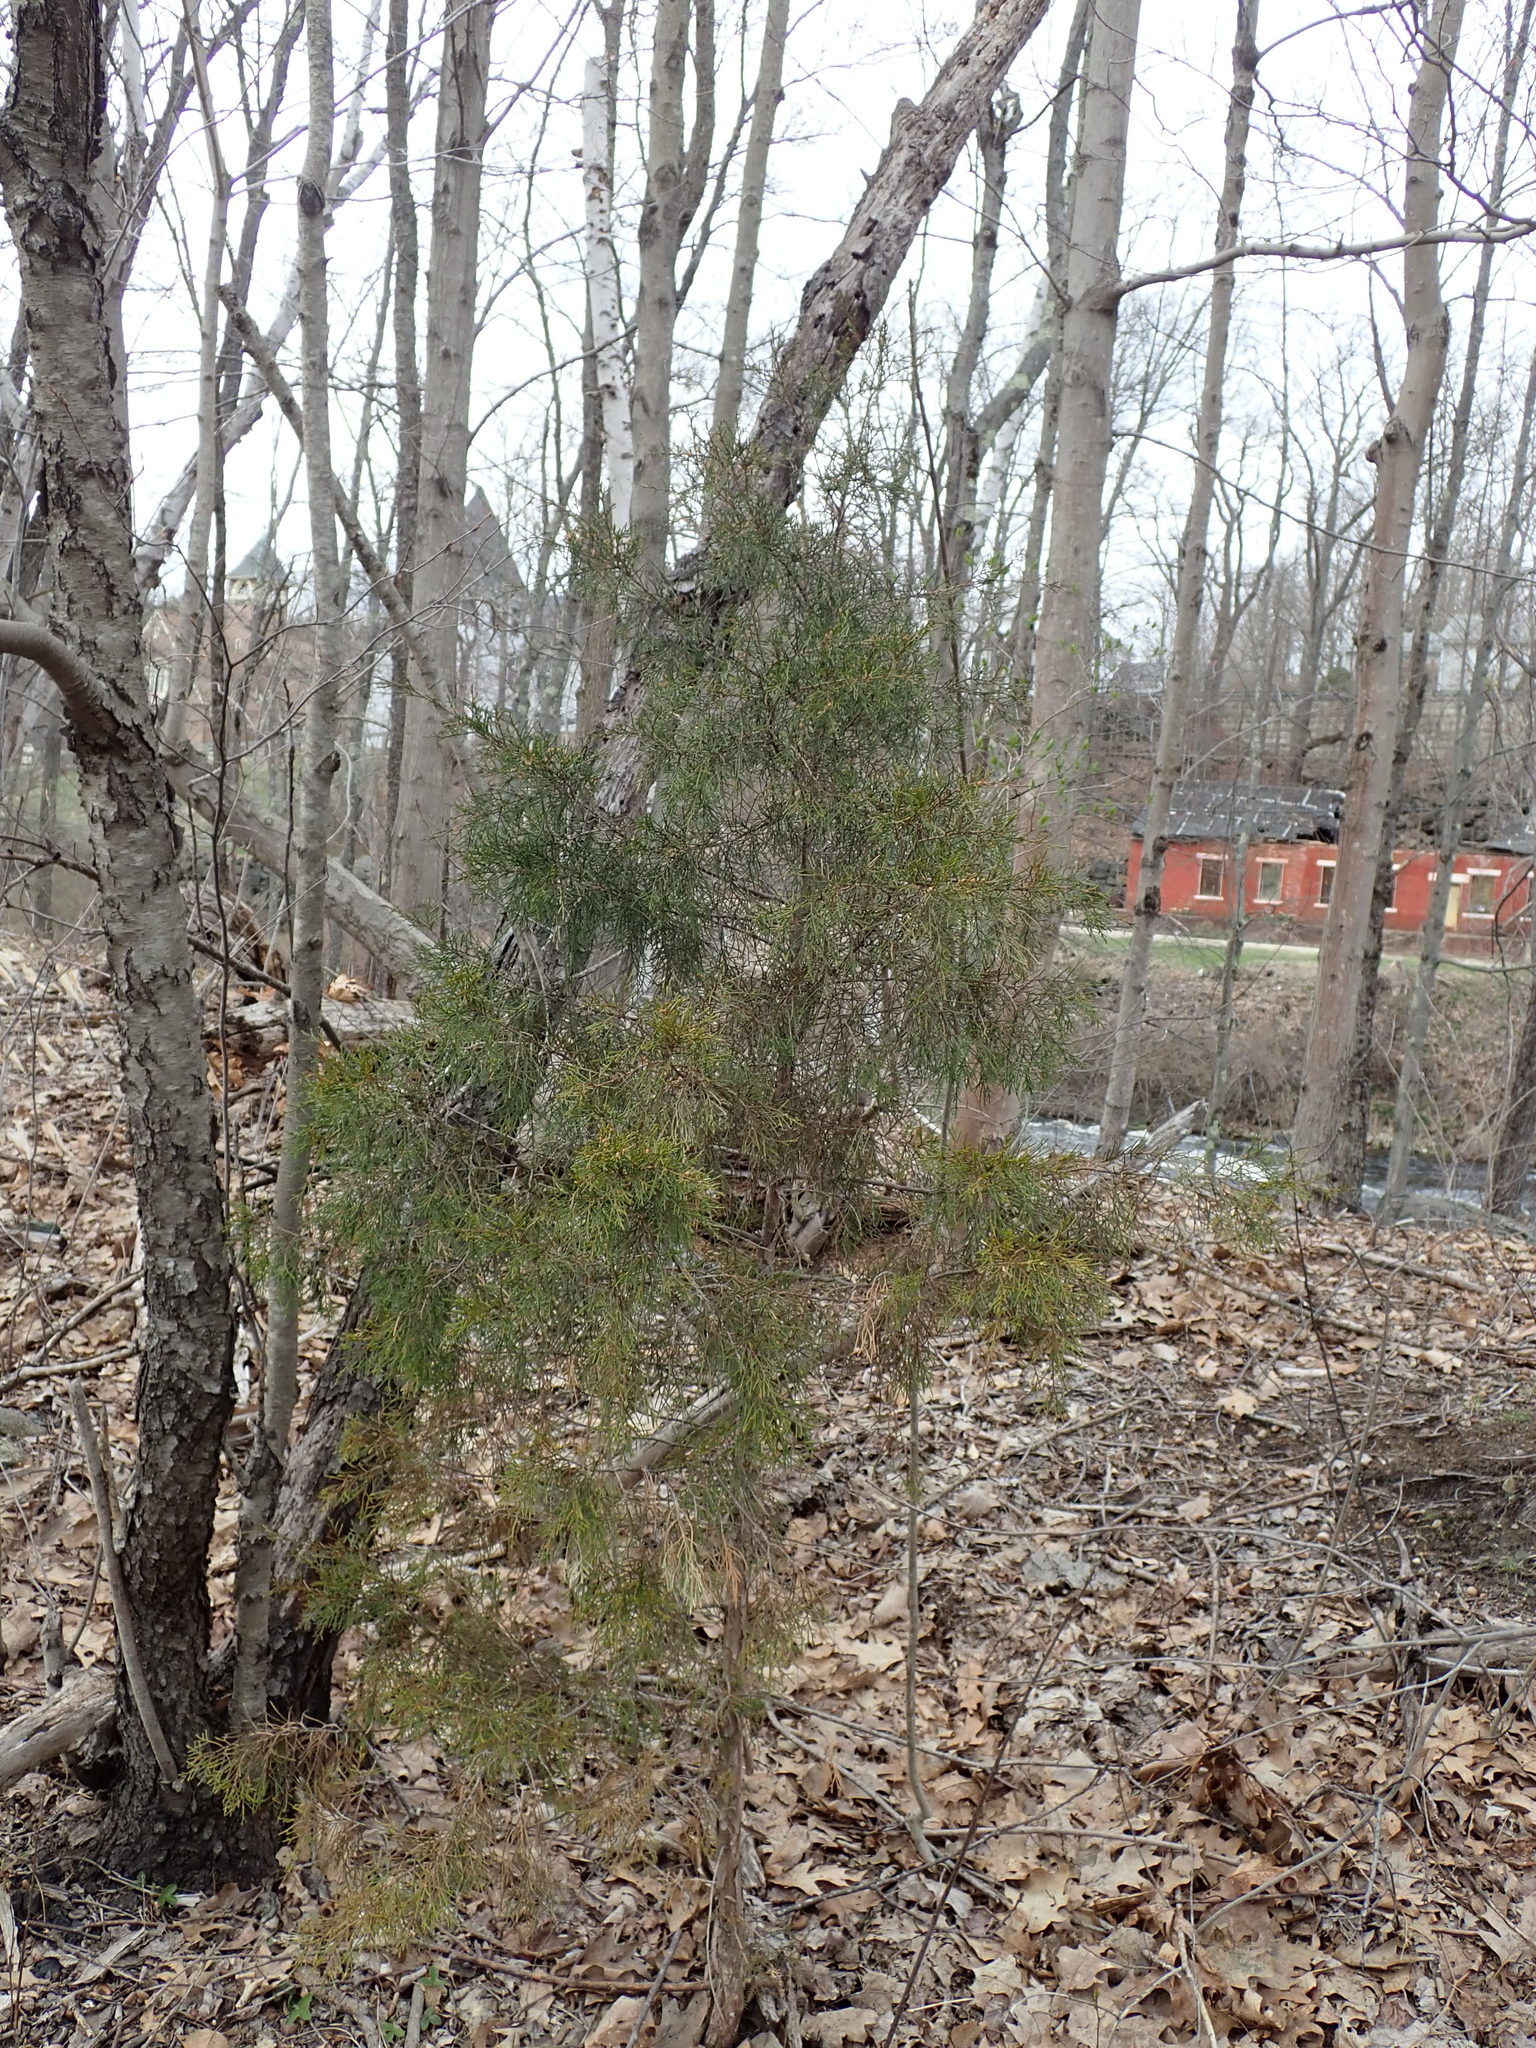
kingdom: Plantae
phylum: Tracheophyta
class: Pinopsida
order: Pinales
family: Cupressaceae
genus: Juniperus
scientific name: Juniperus virginiana
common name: Red juniper
